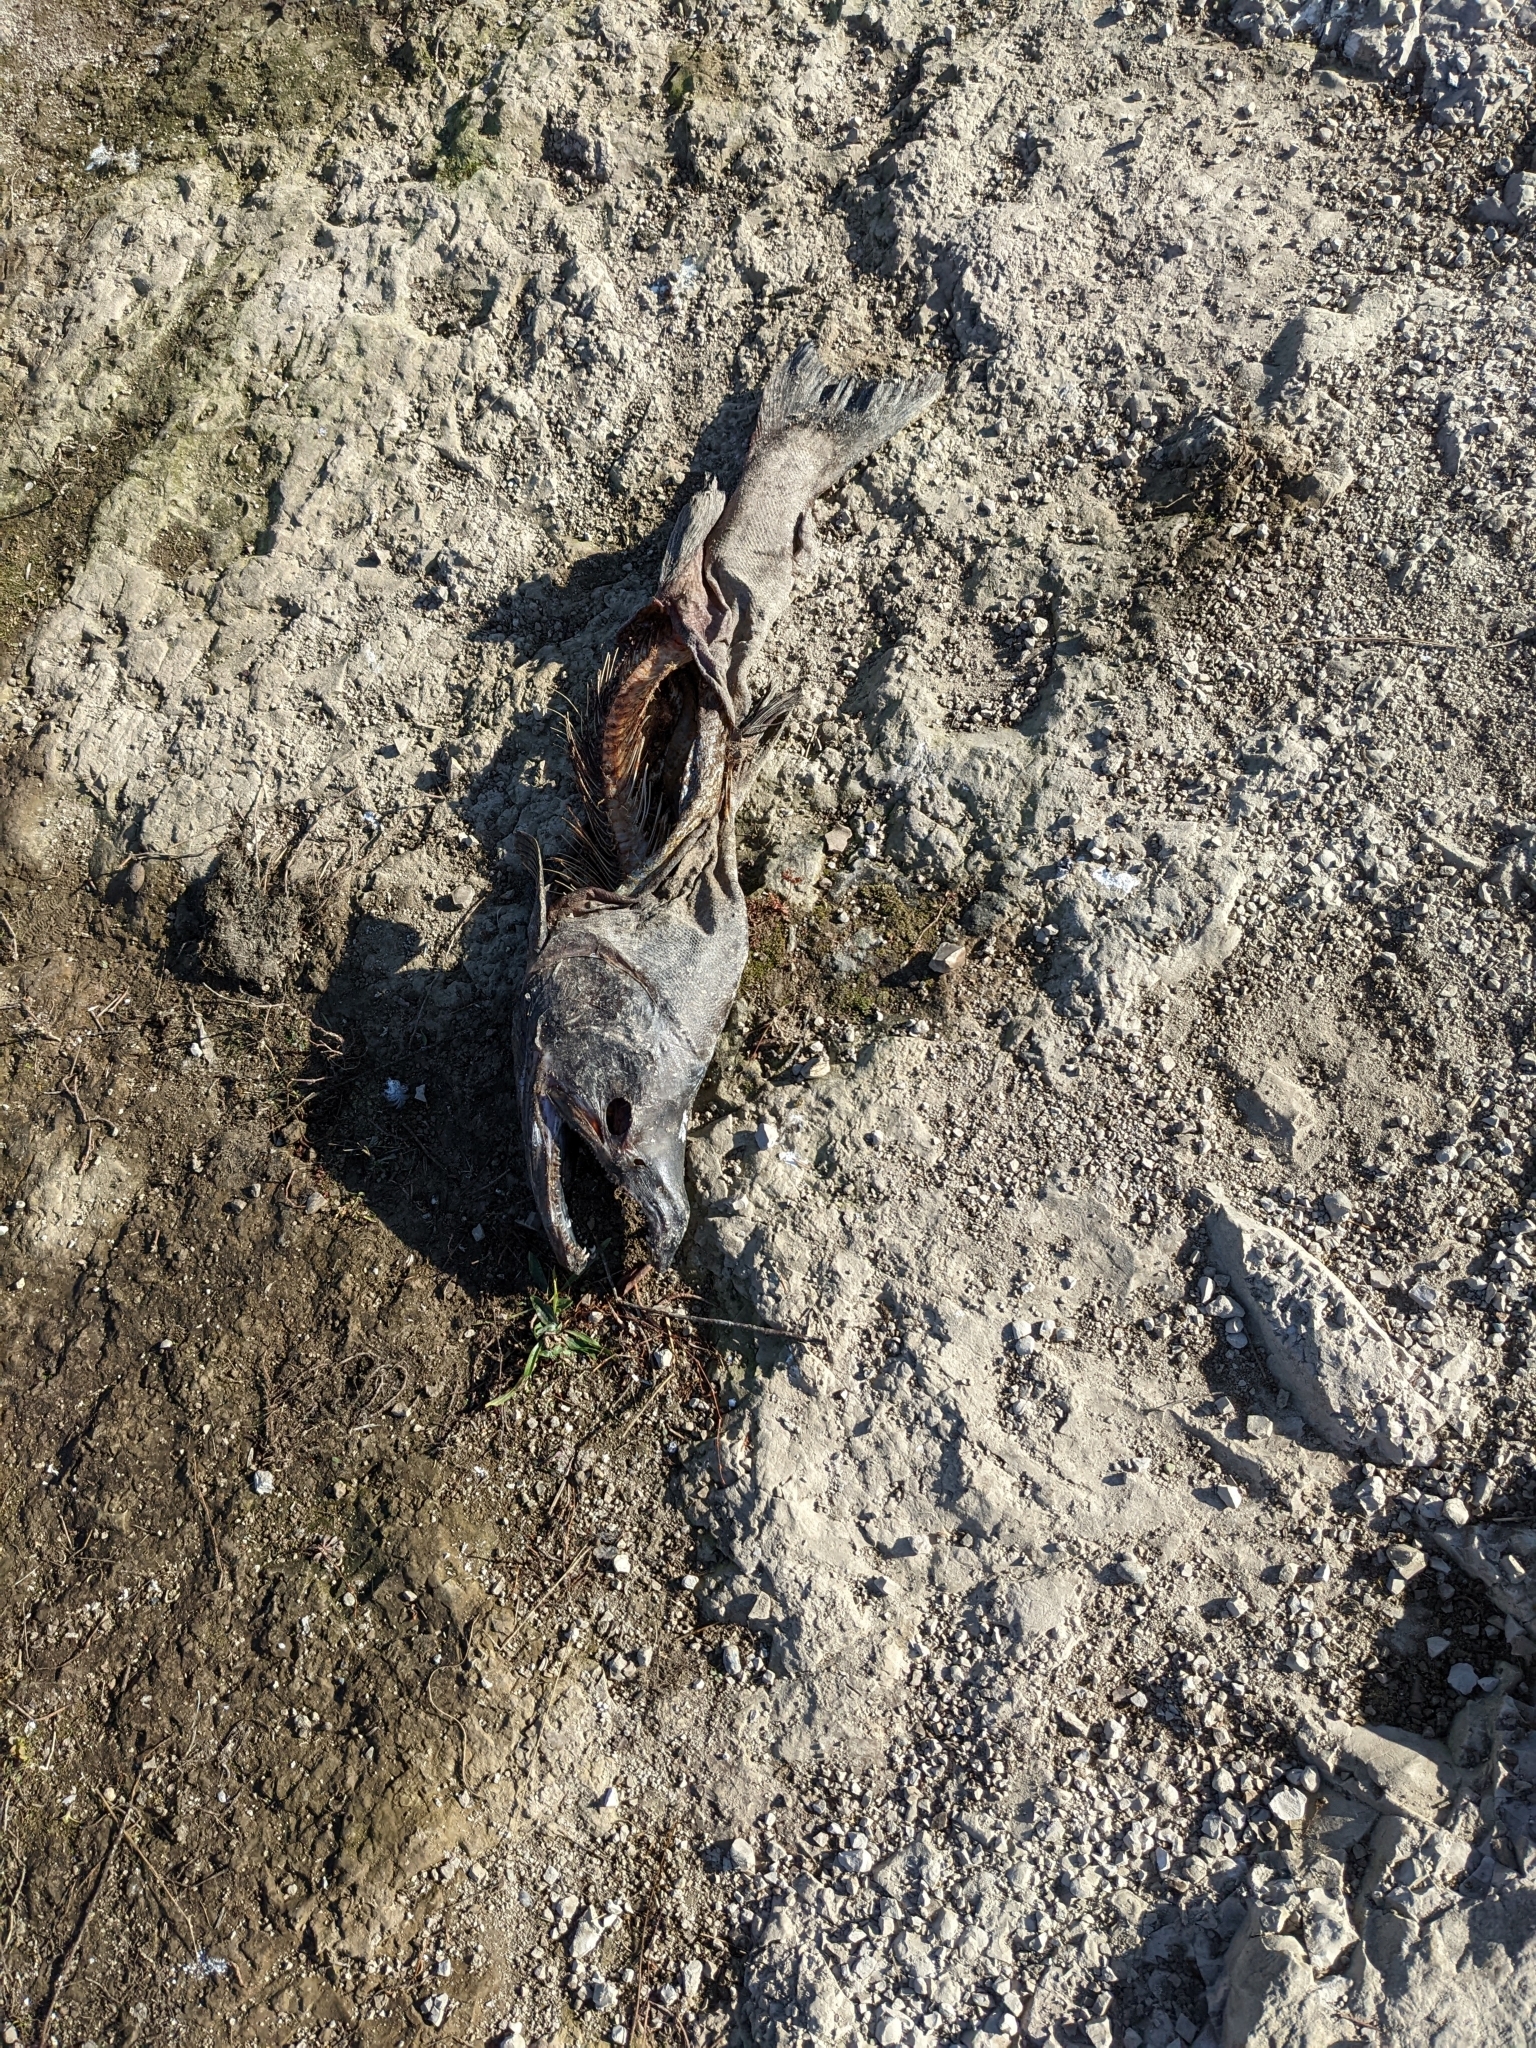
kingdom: Animalia
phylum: Chordata
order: Salmoniformes
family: Salmonidae
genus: Oncorhynchus
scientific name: Oncorhynchus tshawytscha
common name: Chinook salmon
